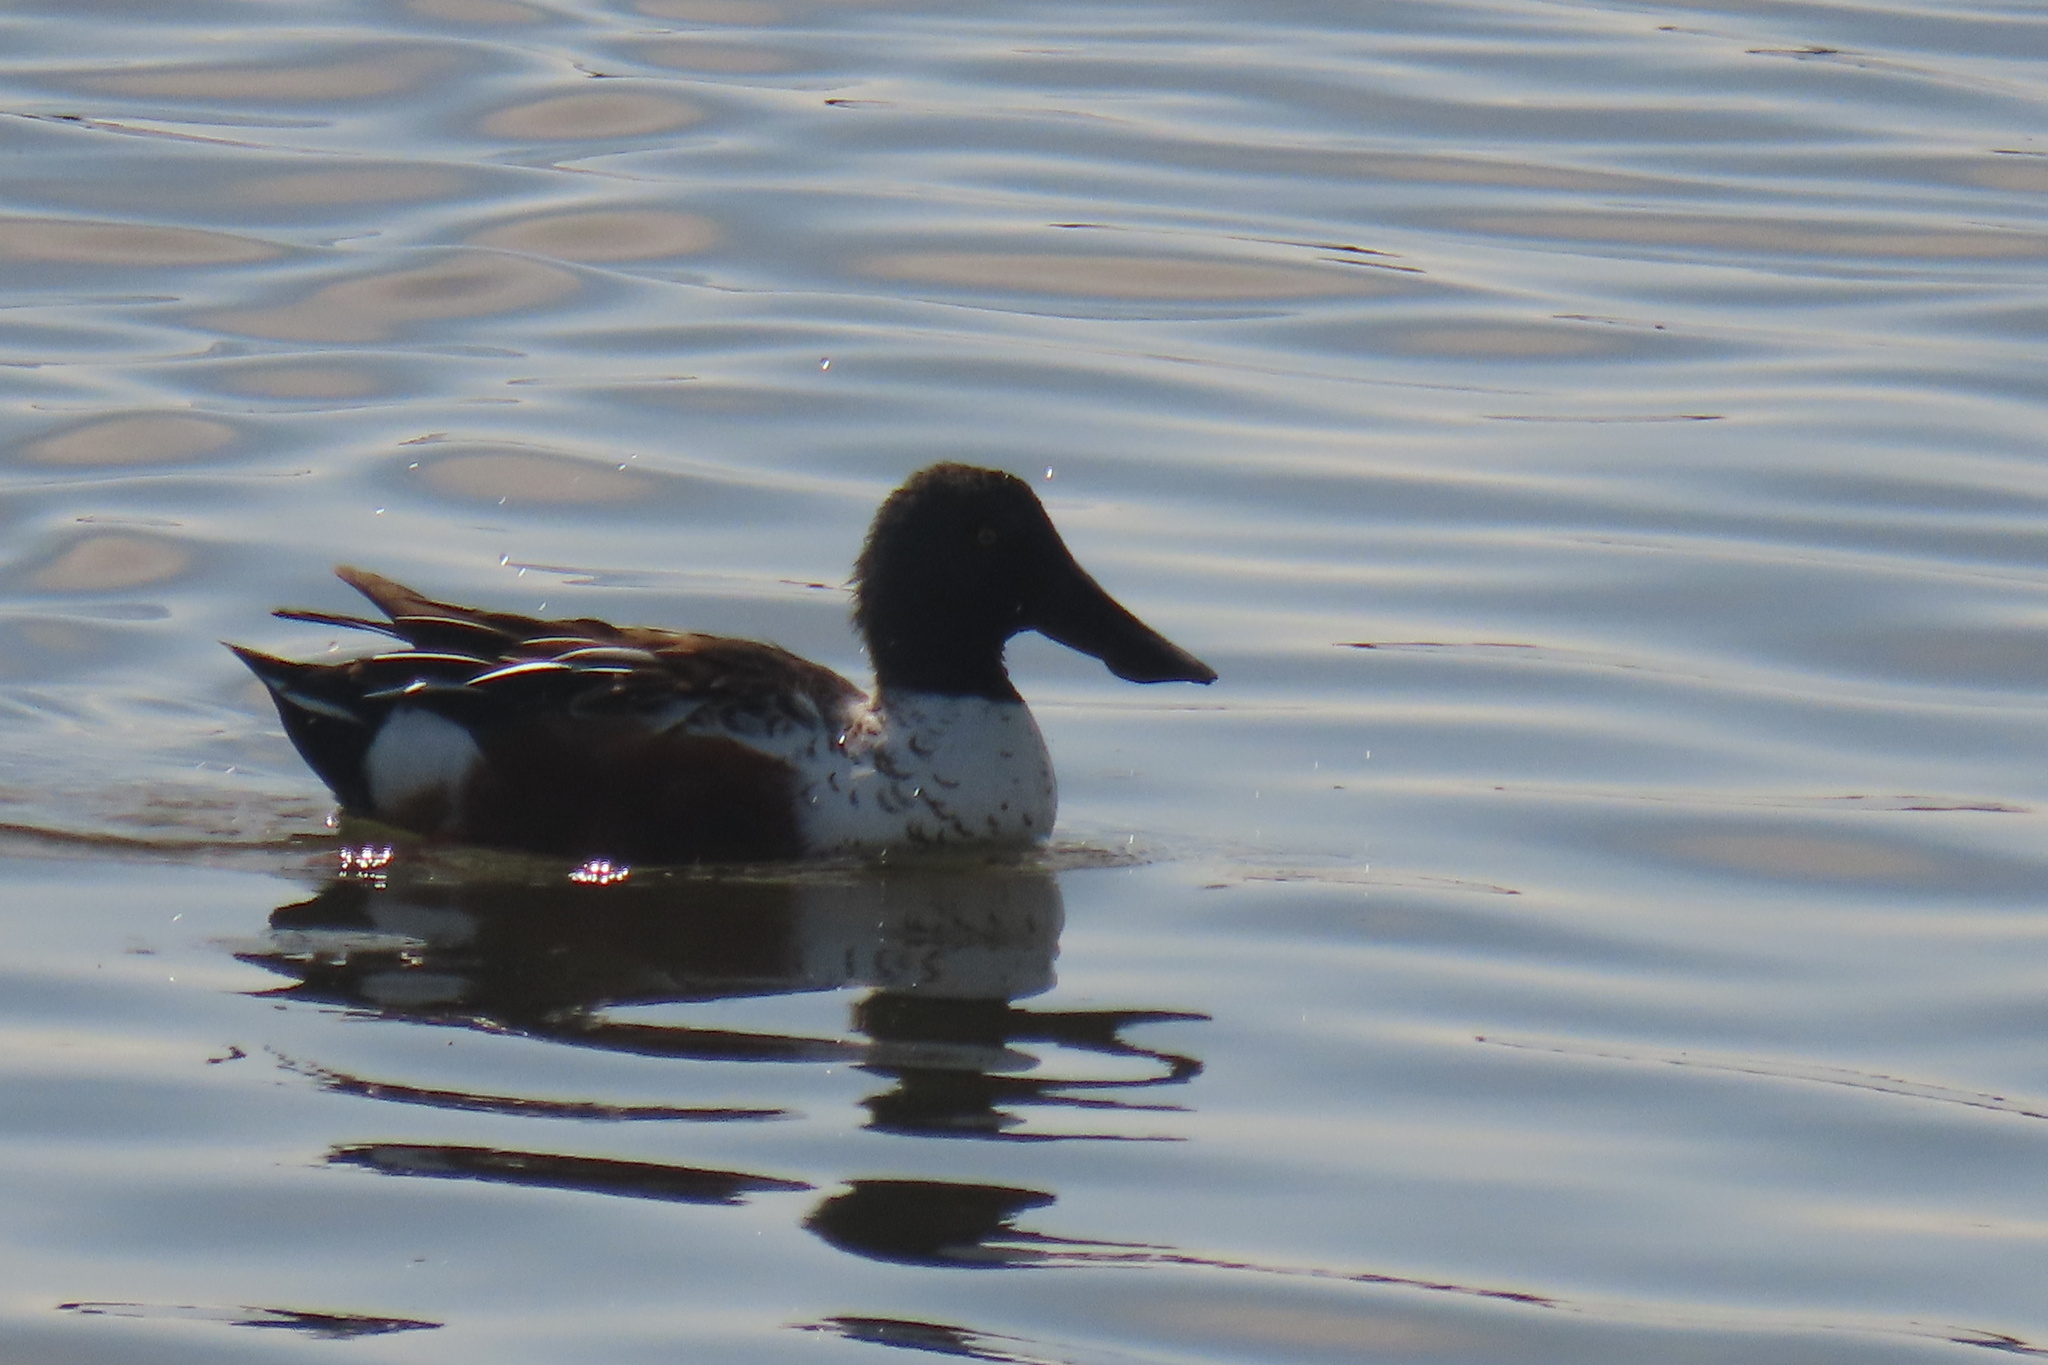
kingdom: Animalia
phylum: Chordata
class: Aves
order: Anseriformes
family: Anatidae
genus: Spatula
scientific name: Spatula clypeata
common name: Northern shoveler
